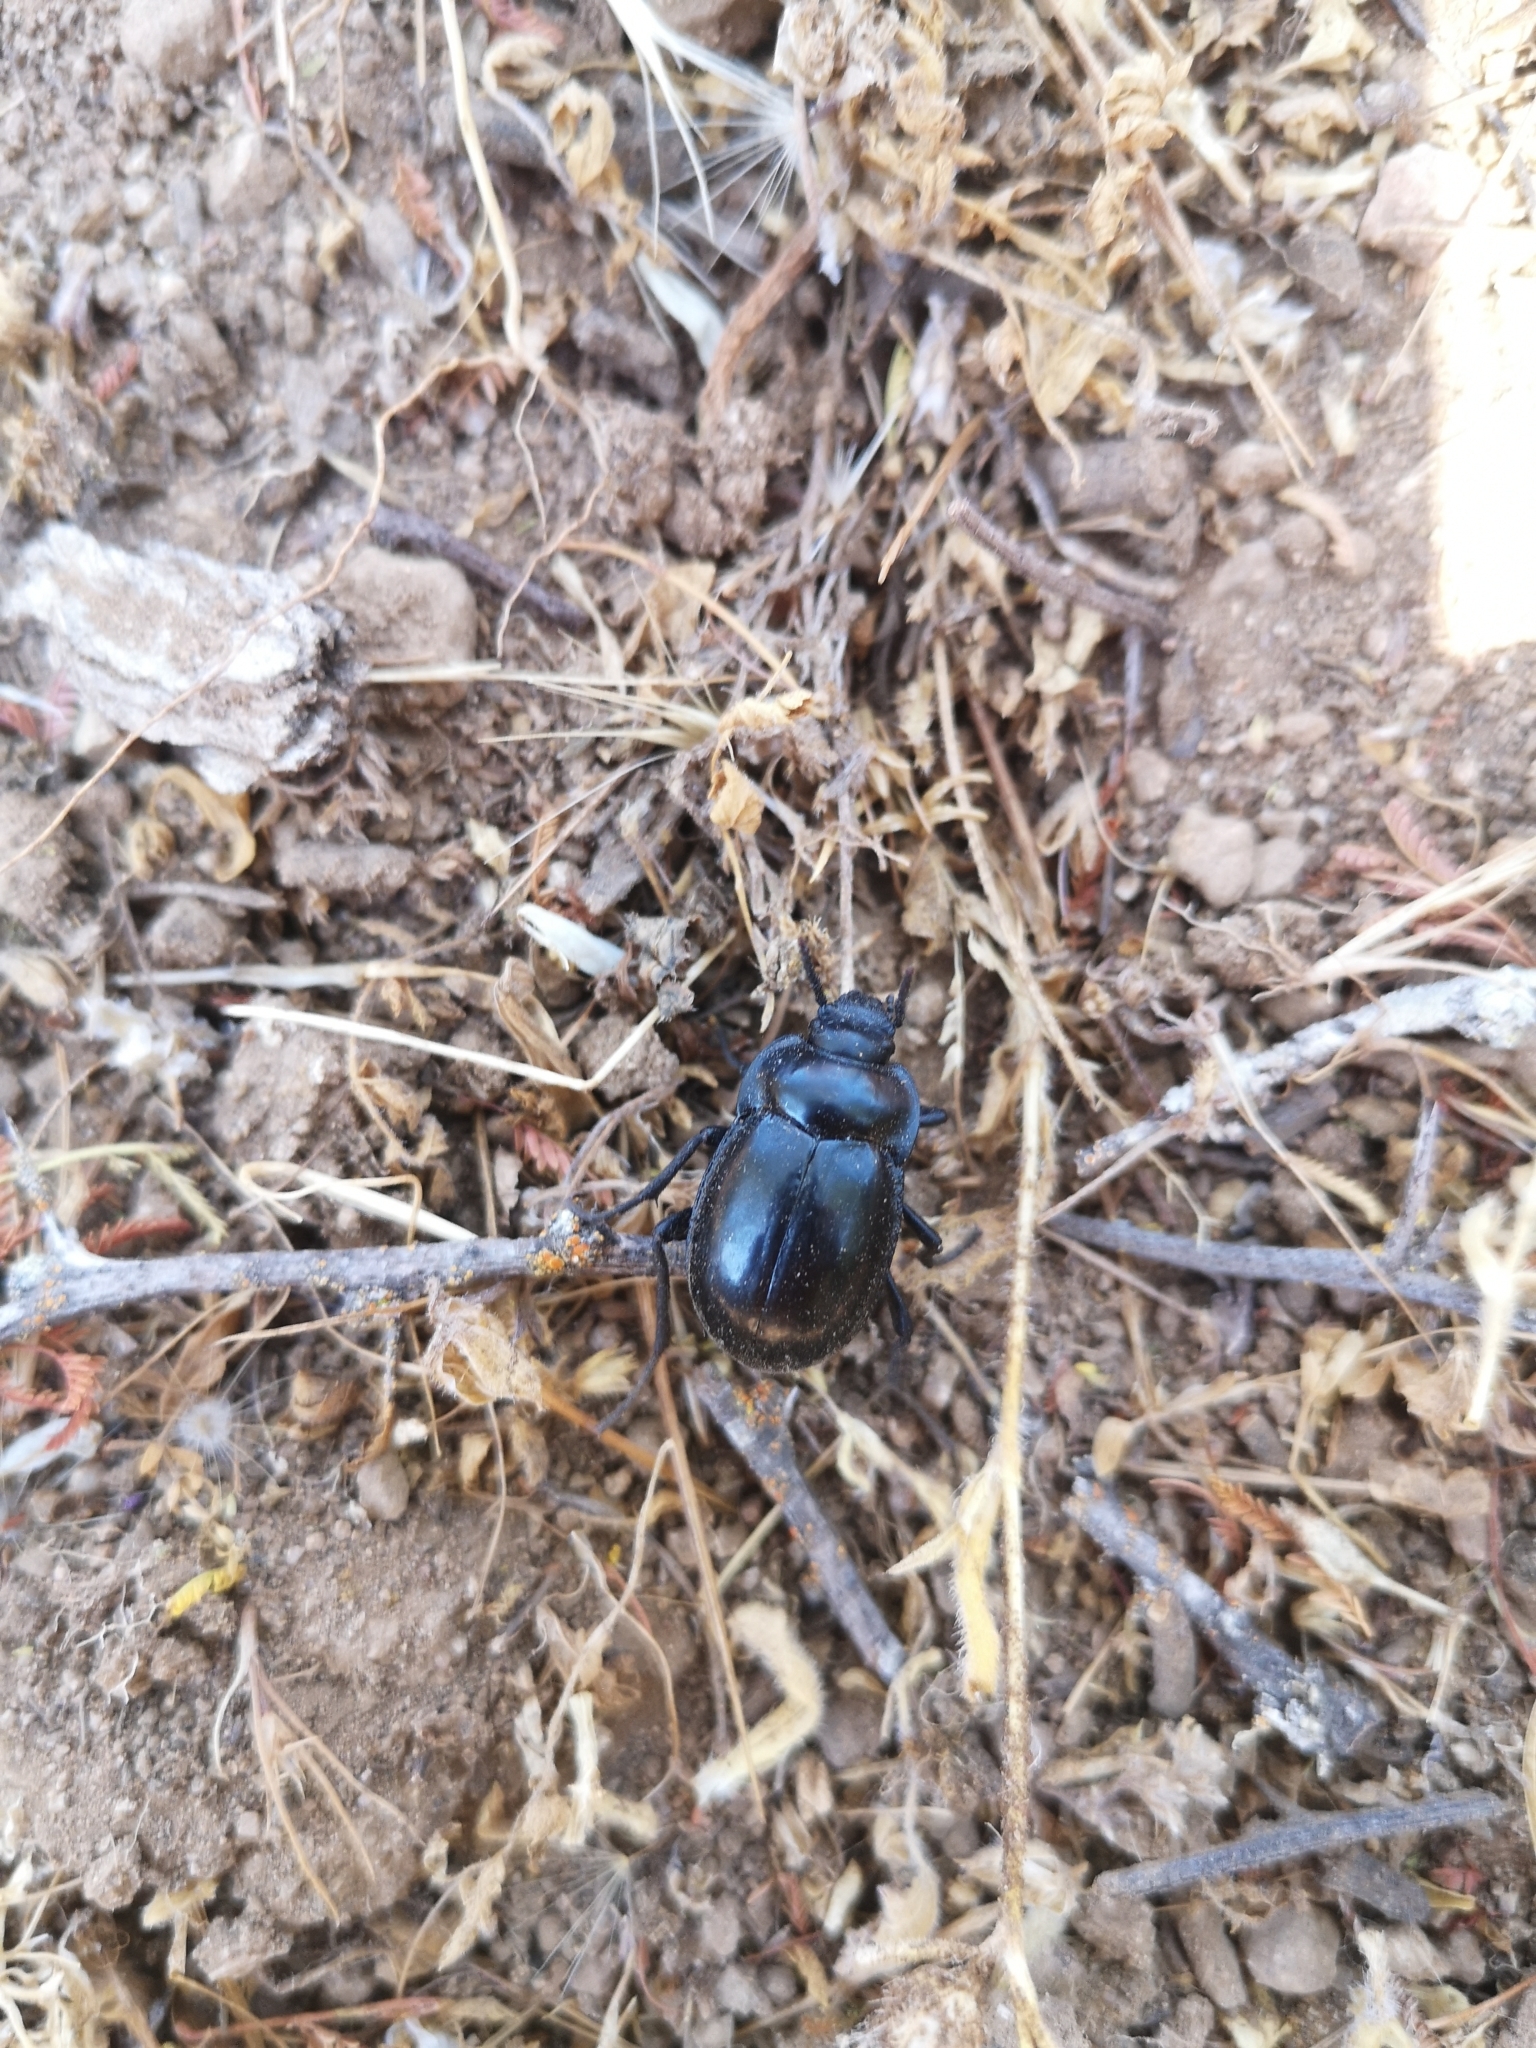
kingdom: Animalia
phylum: Arthropoda
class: Insecta
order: Coleoptera
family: Tenebrionidae
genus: Gyriosomus
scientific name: Gyriosomus
